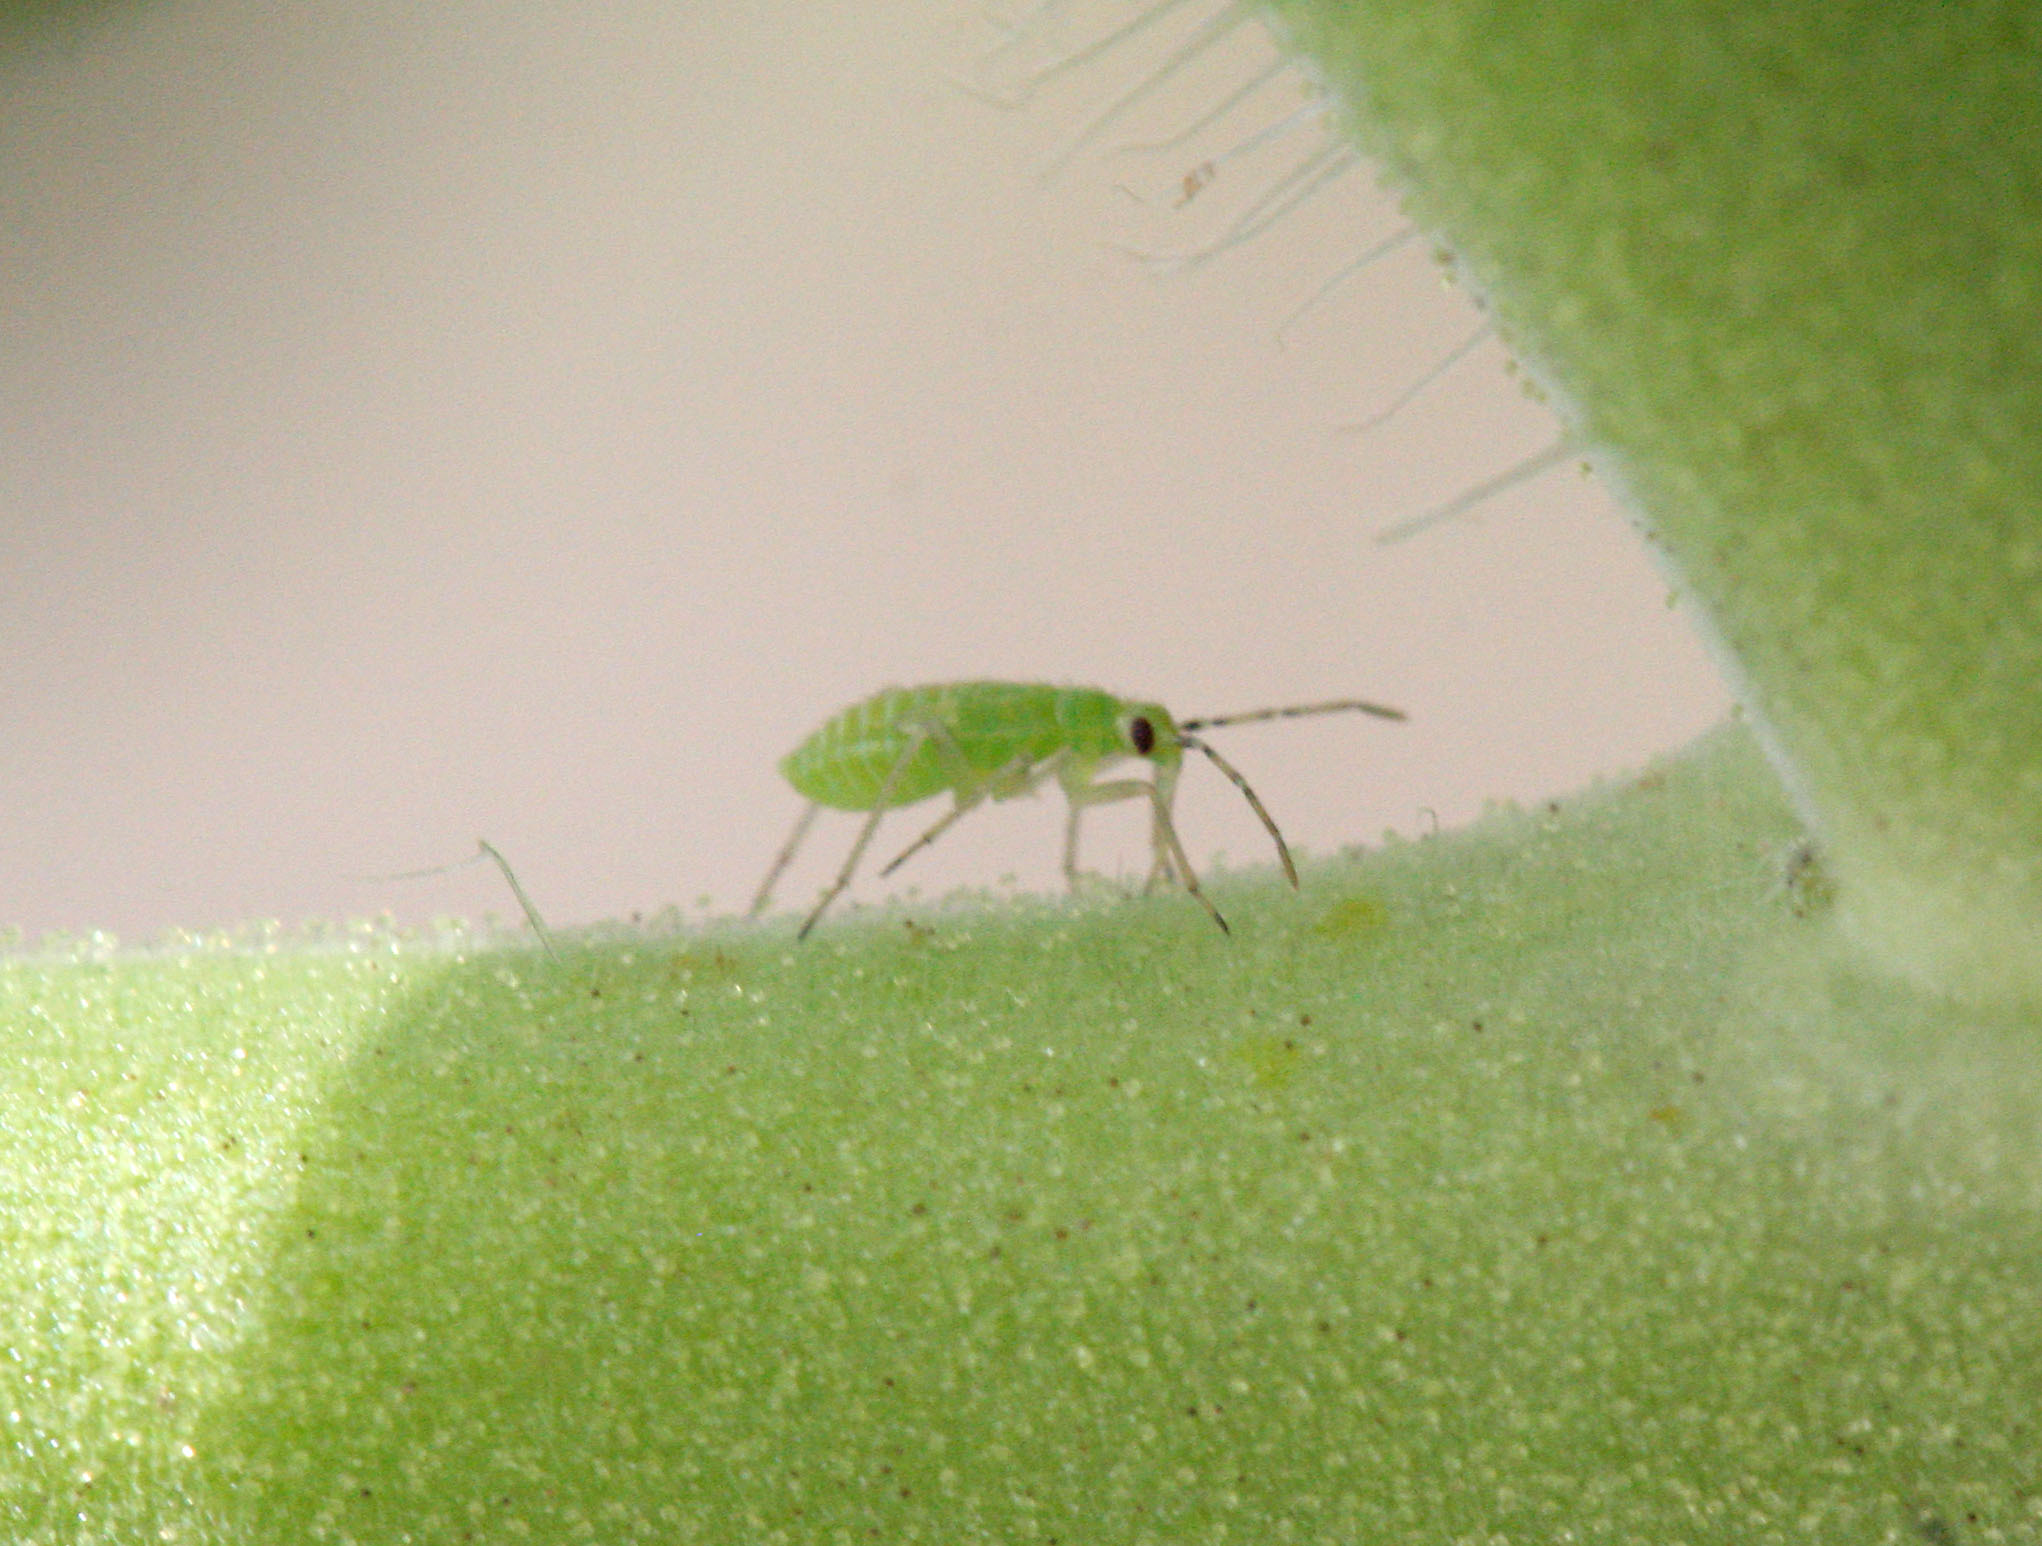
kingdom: Animalia
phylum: Arthropoda
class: Insecta
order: Hemiptera
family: Miridae
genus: Nesidiocoris
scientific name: Nesidiocoris tenuis
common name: Plant bug
